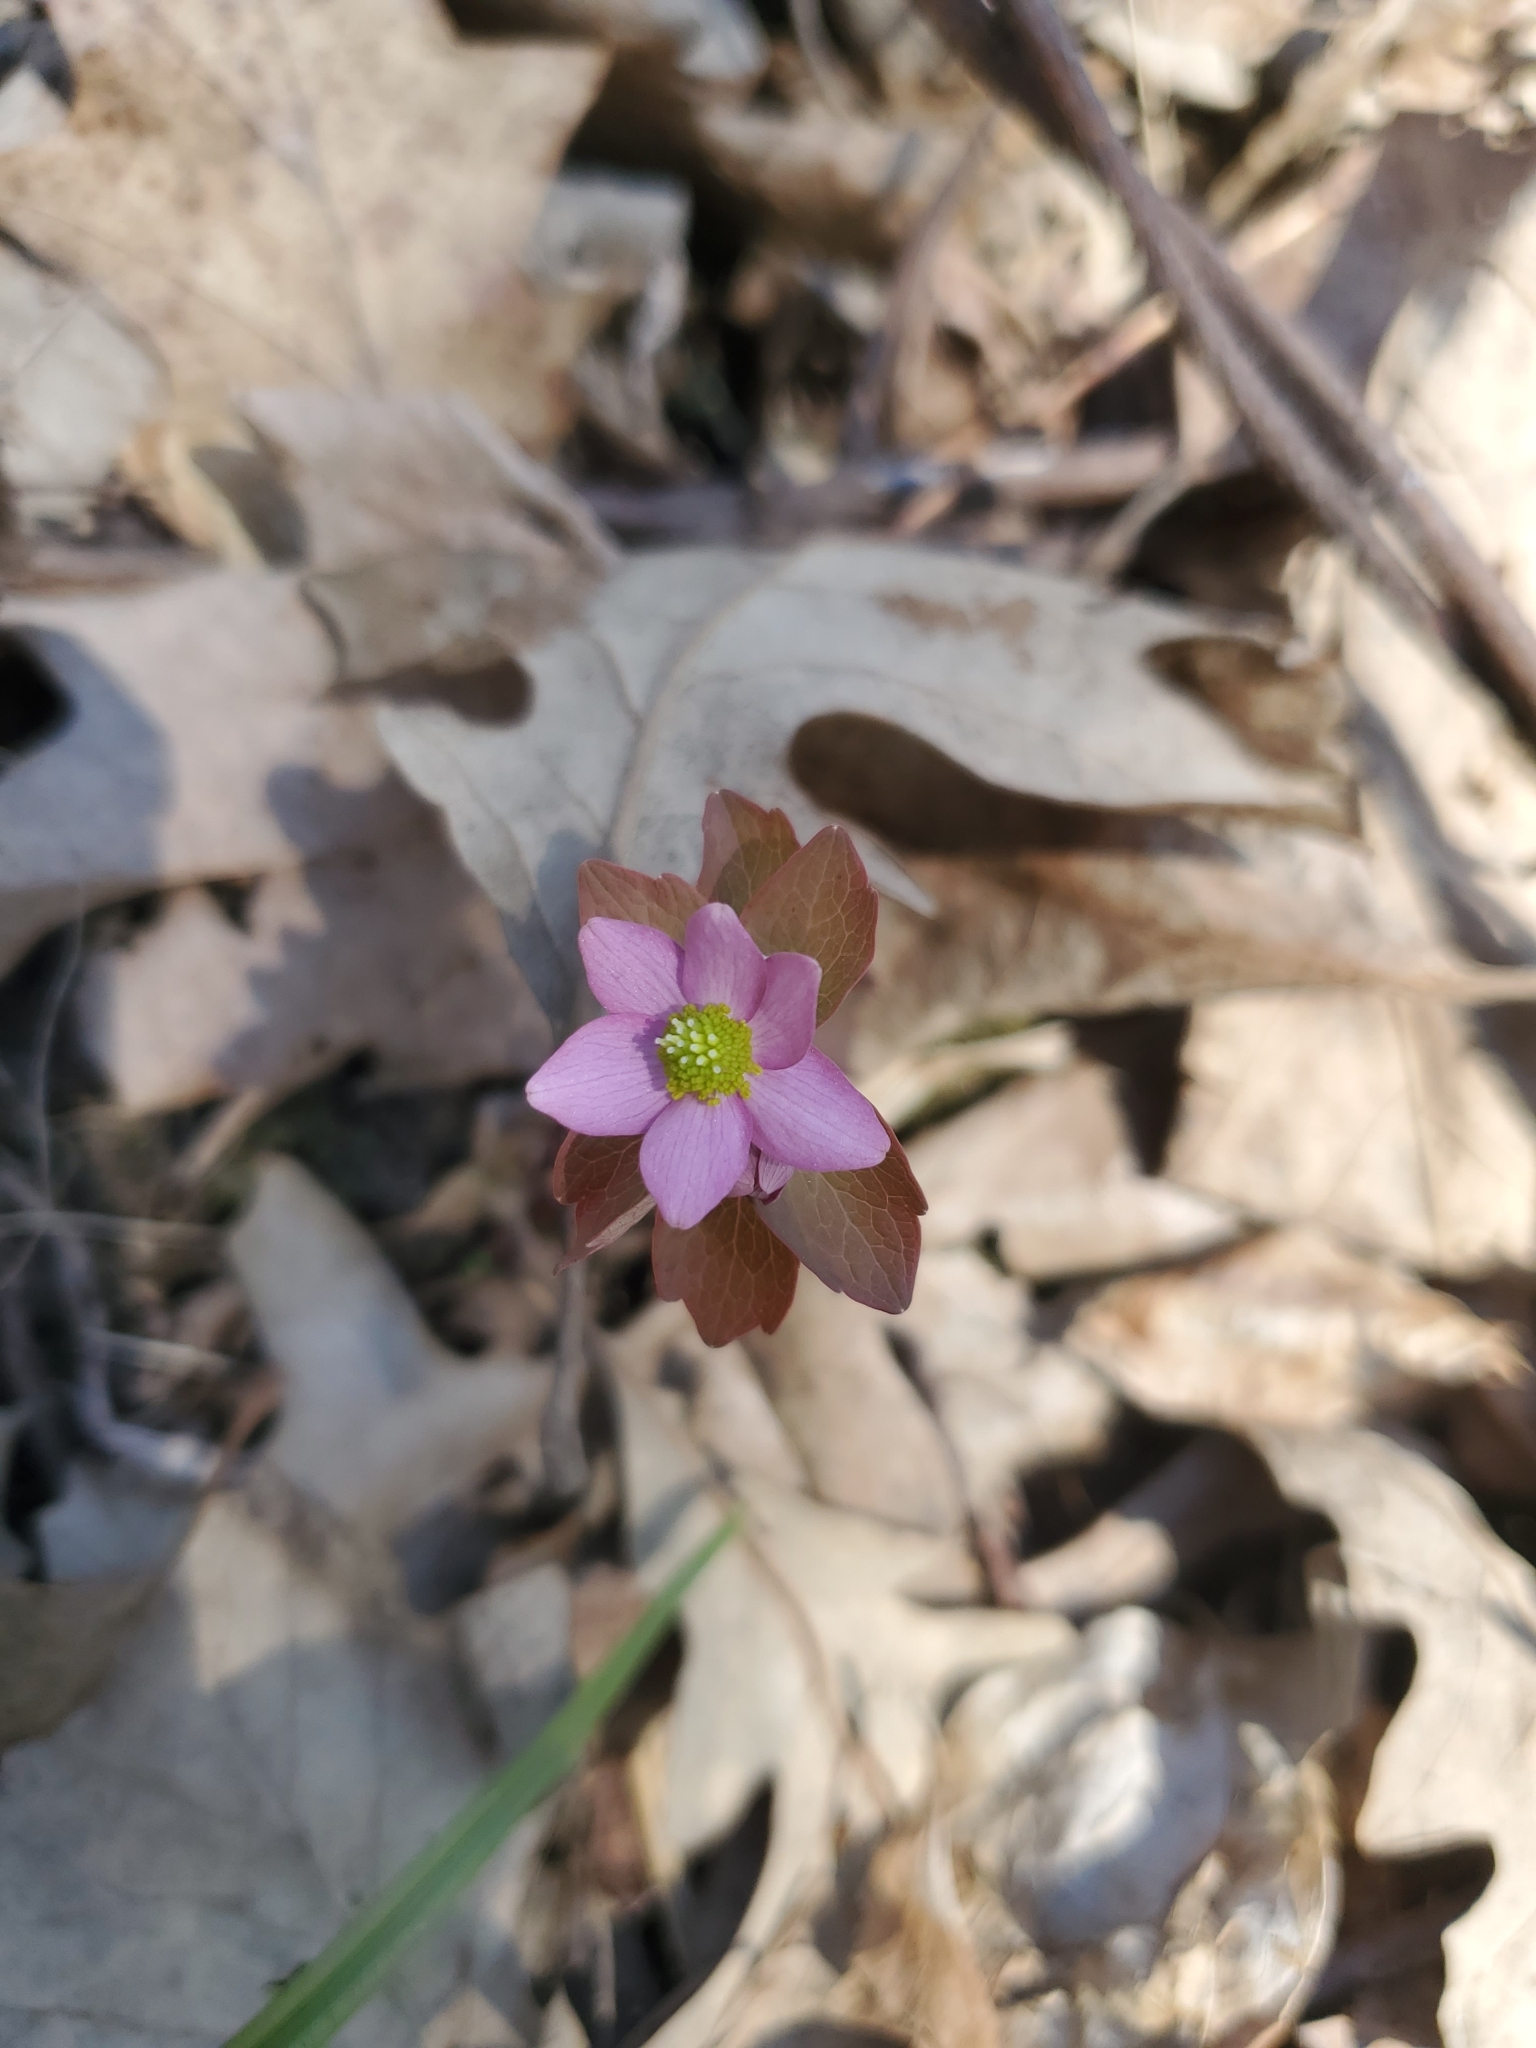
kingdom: Plantae
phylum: Tracheophyta
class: Magnoliopsida
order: Ranunculales
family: Ranunculaceae
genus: Thalictrum
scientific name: Thalictrum thalictroides
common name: Rue-anemone
